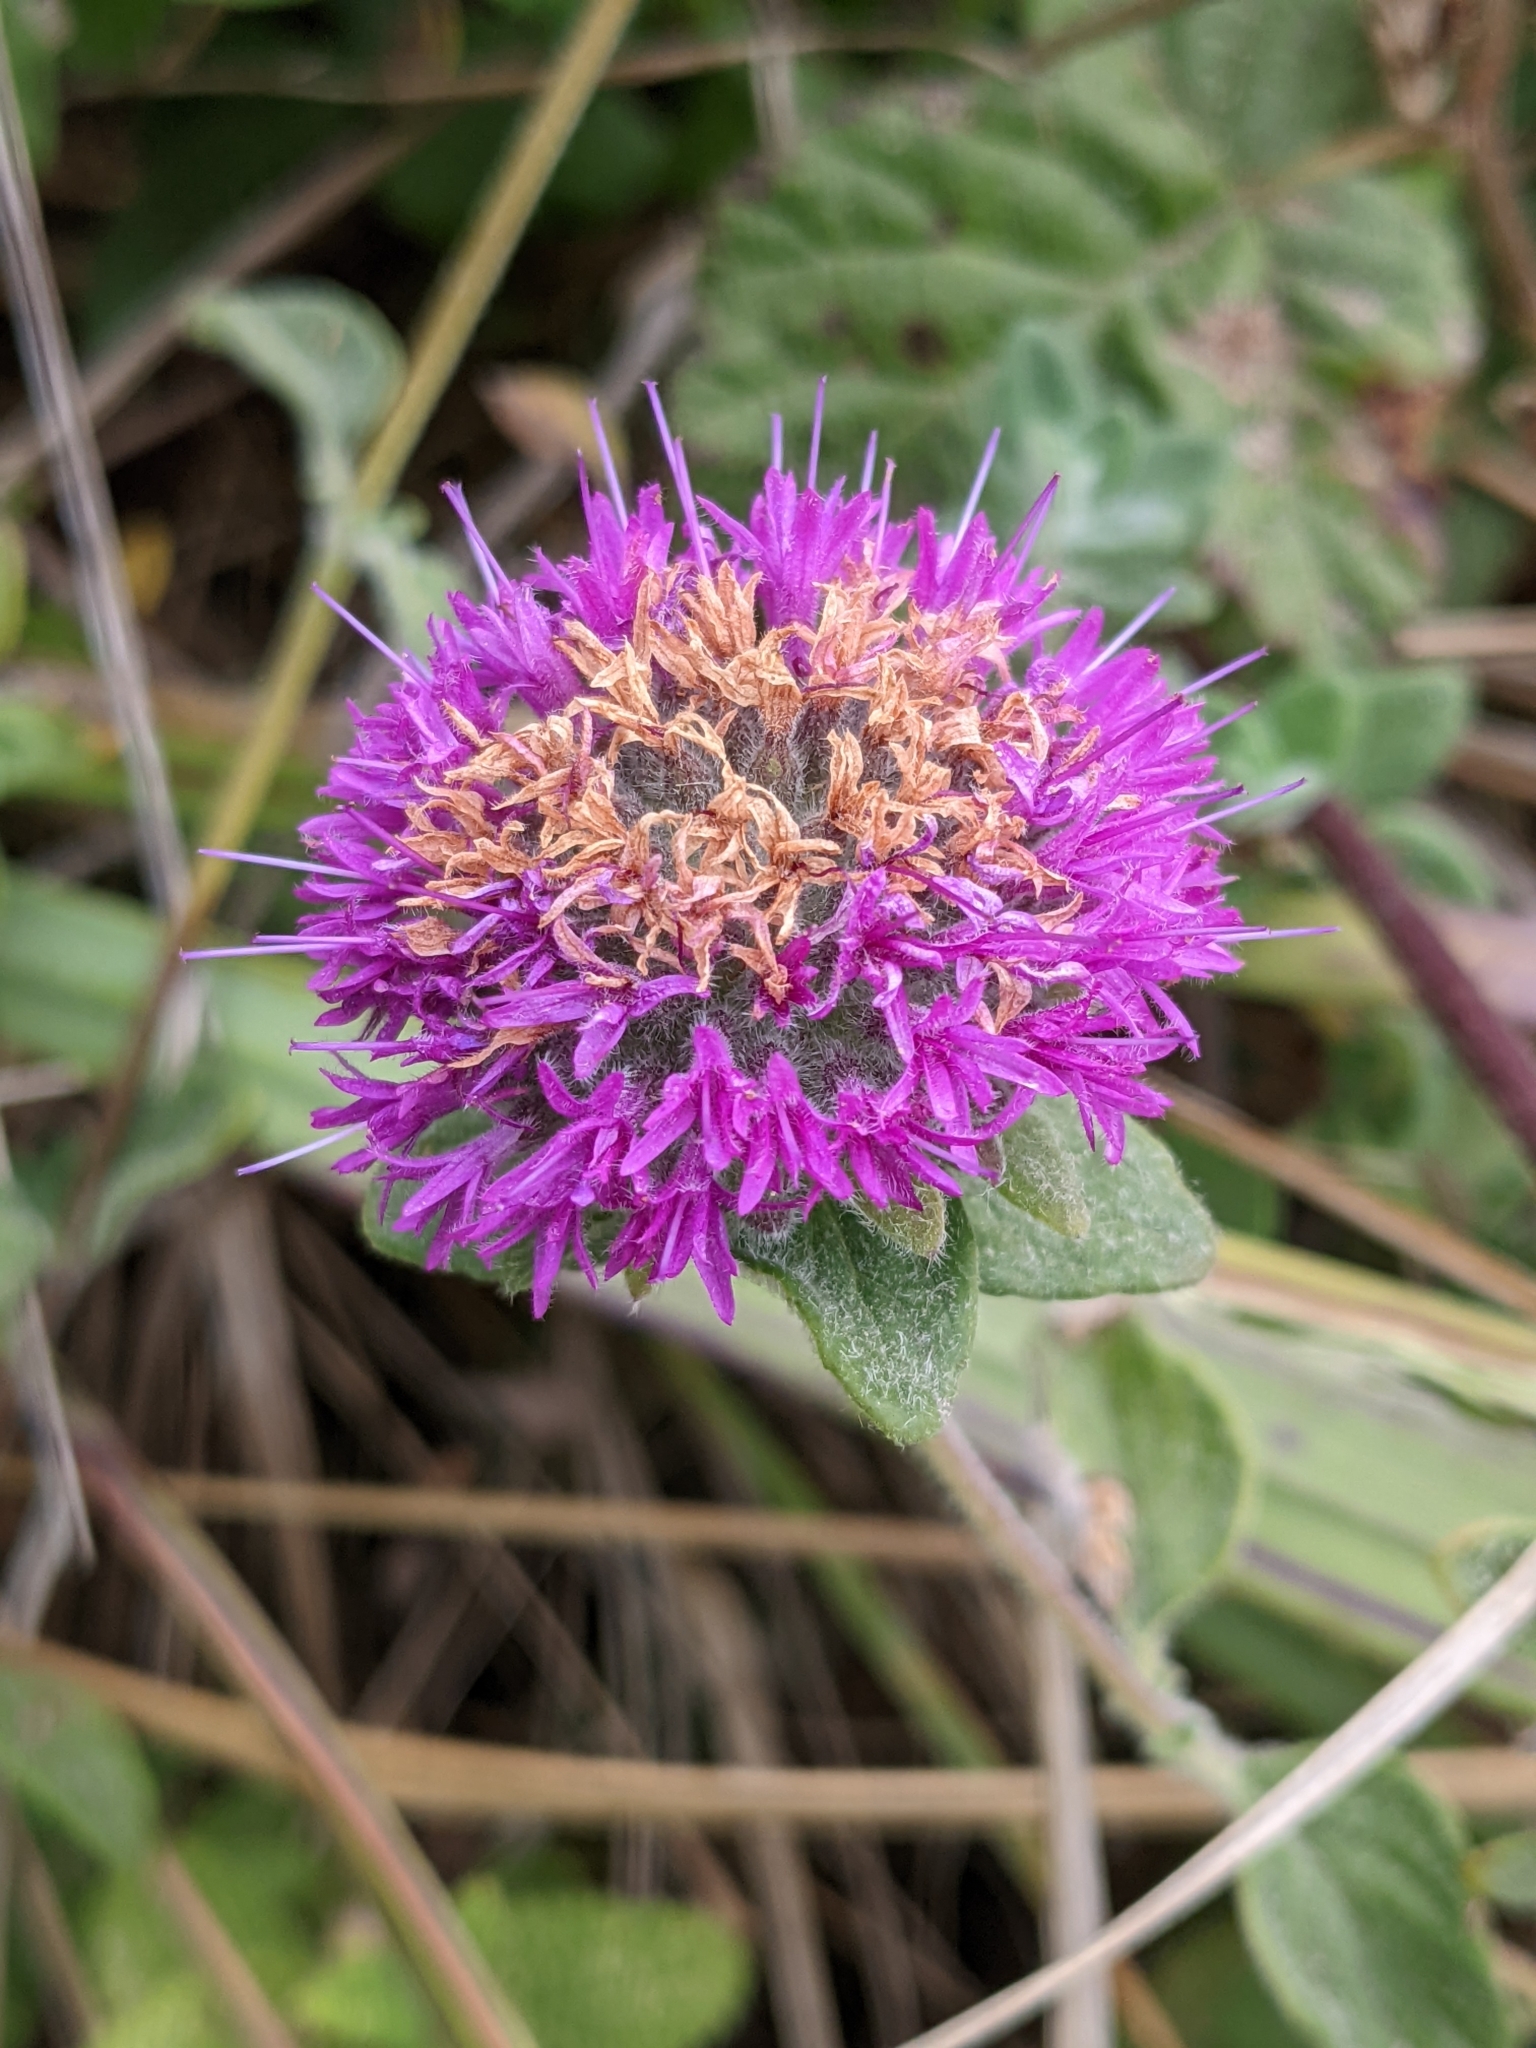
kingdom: Plantae
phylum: Tracheophyta
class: Magnoliopsida
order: Lamiales
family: Lamiaceae
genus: Monardella
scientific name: Monardella odoratissima
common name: Pacific monardella
